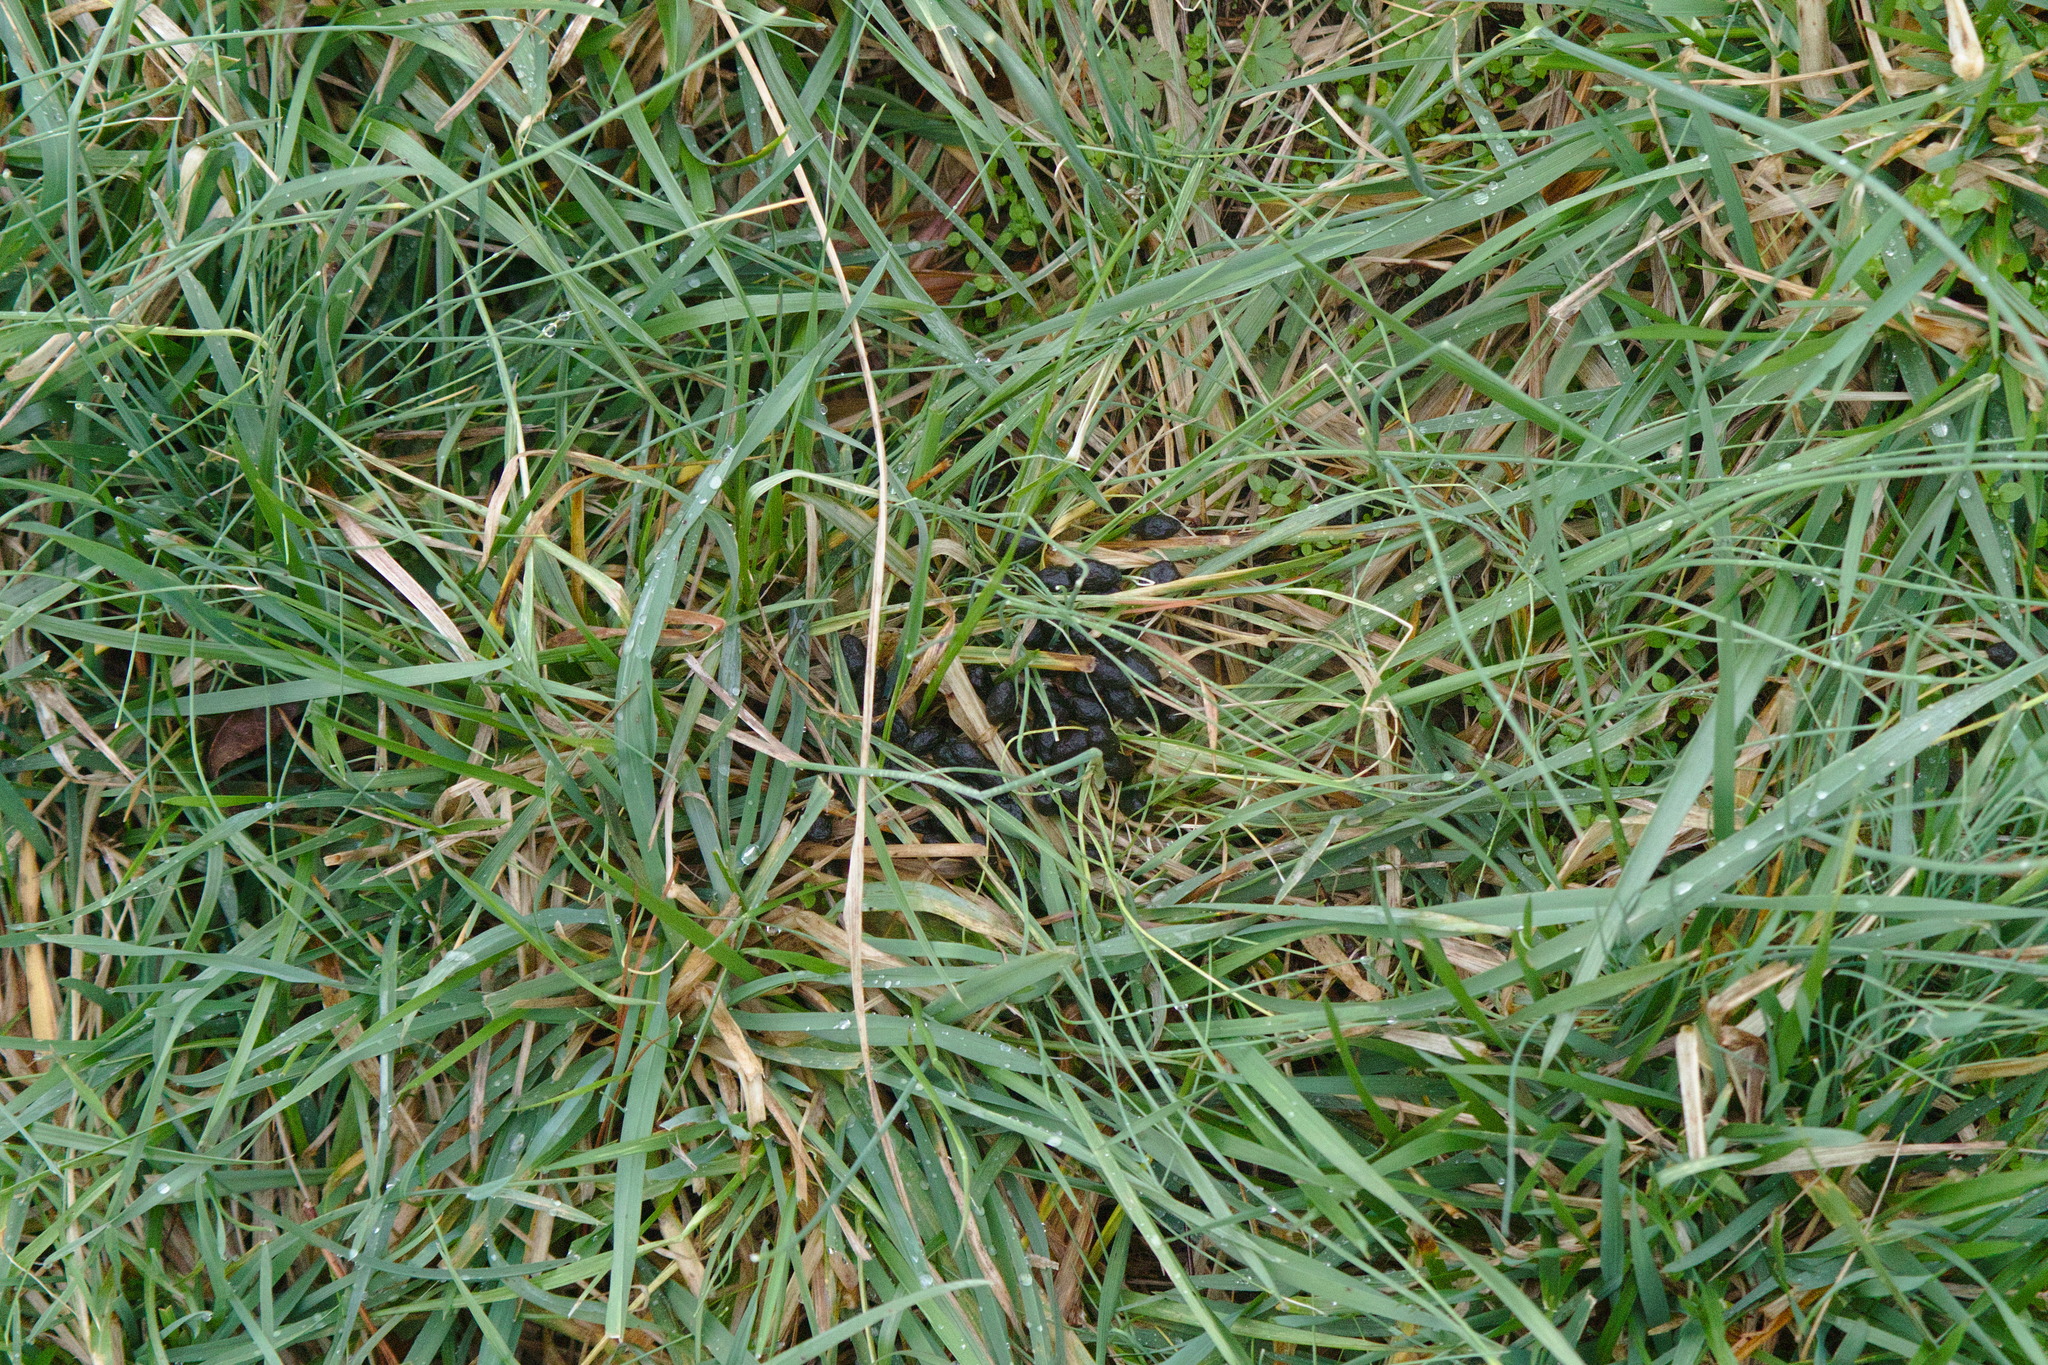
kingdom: Animalia
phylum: Chordata
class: Mammalia
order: Artiodactyla
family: Cervidae
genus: Odocoileus
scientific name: Odocoileus virginianus
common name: White-tailed deer
